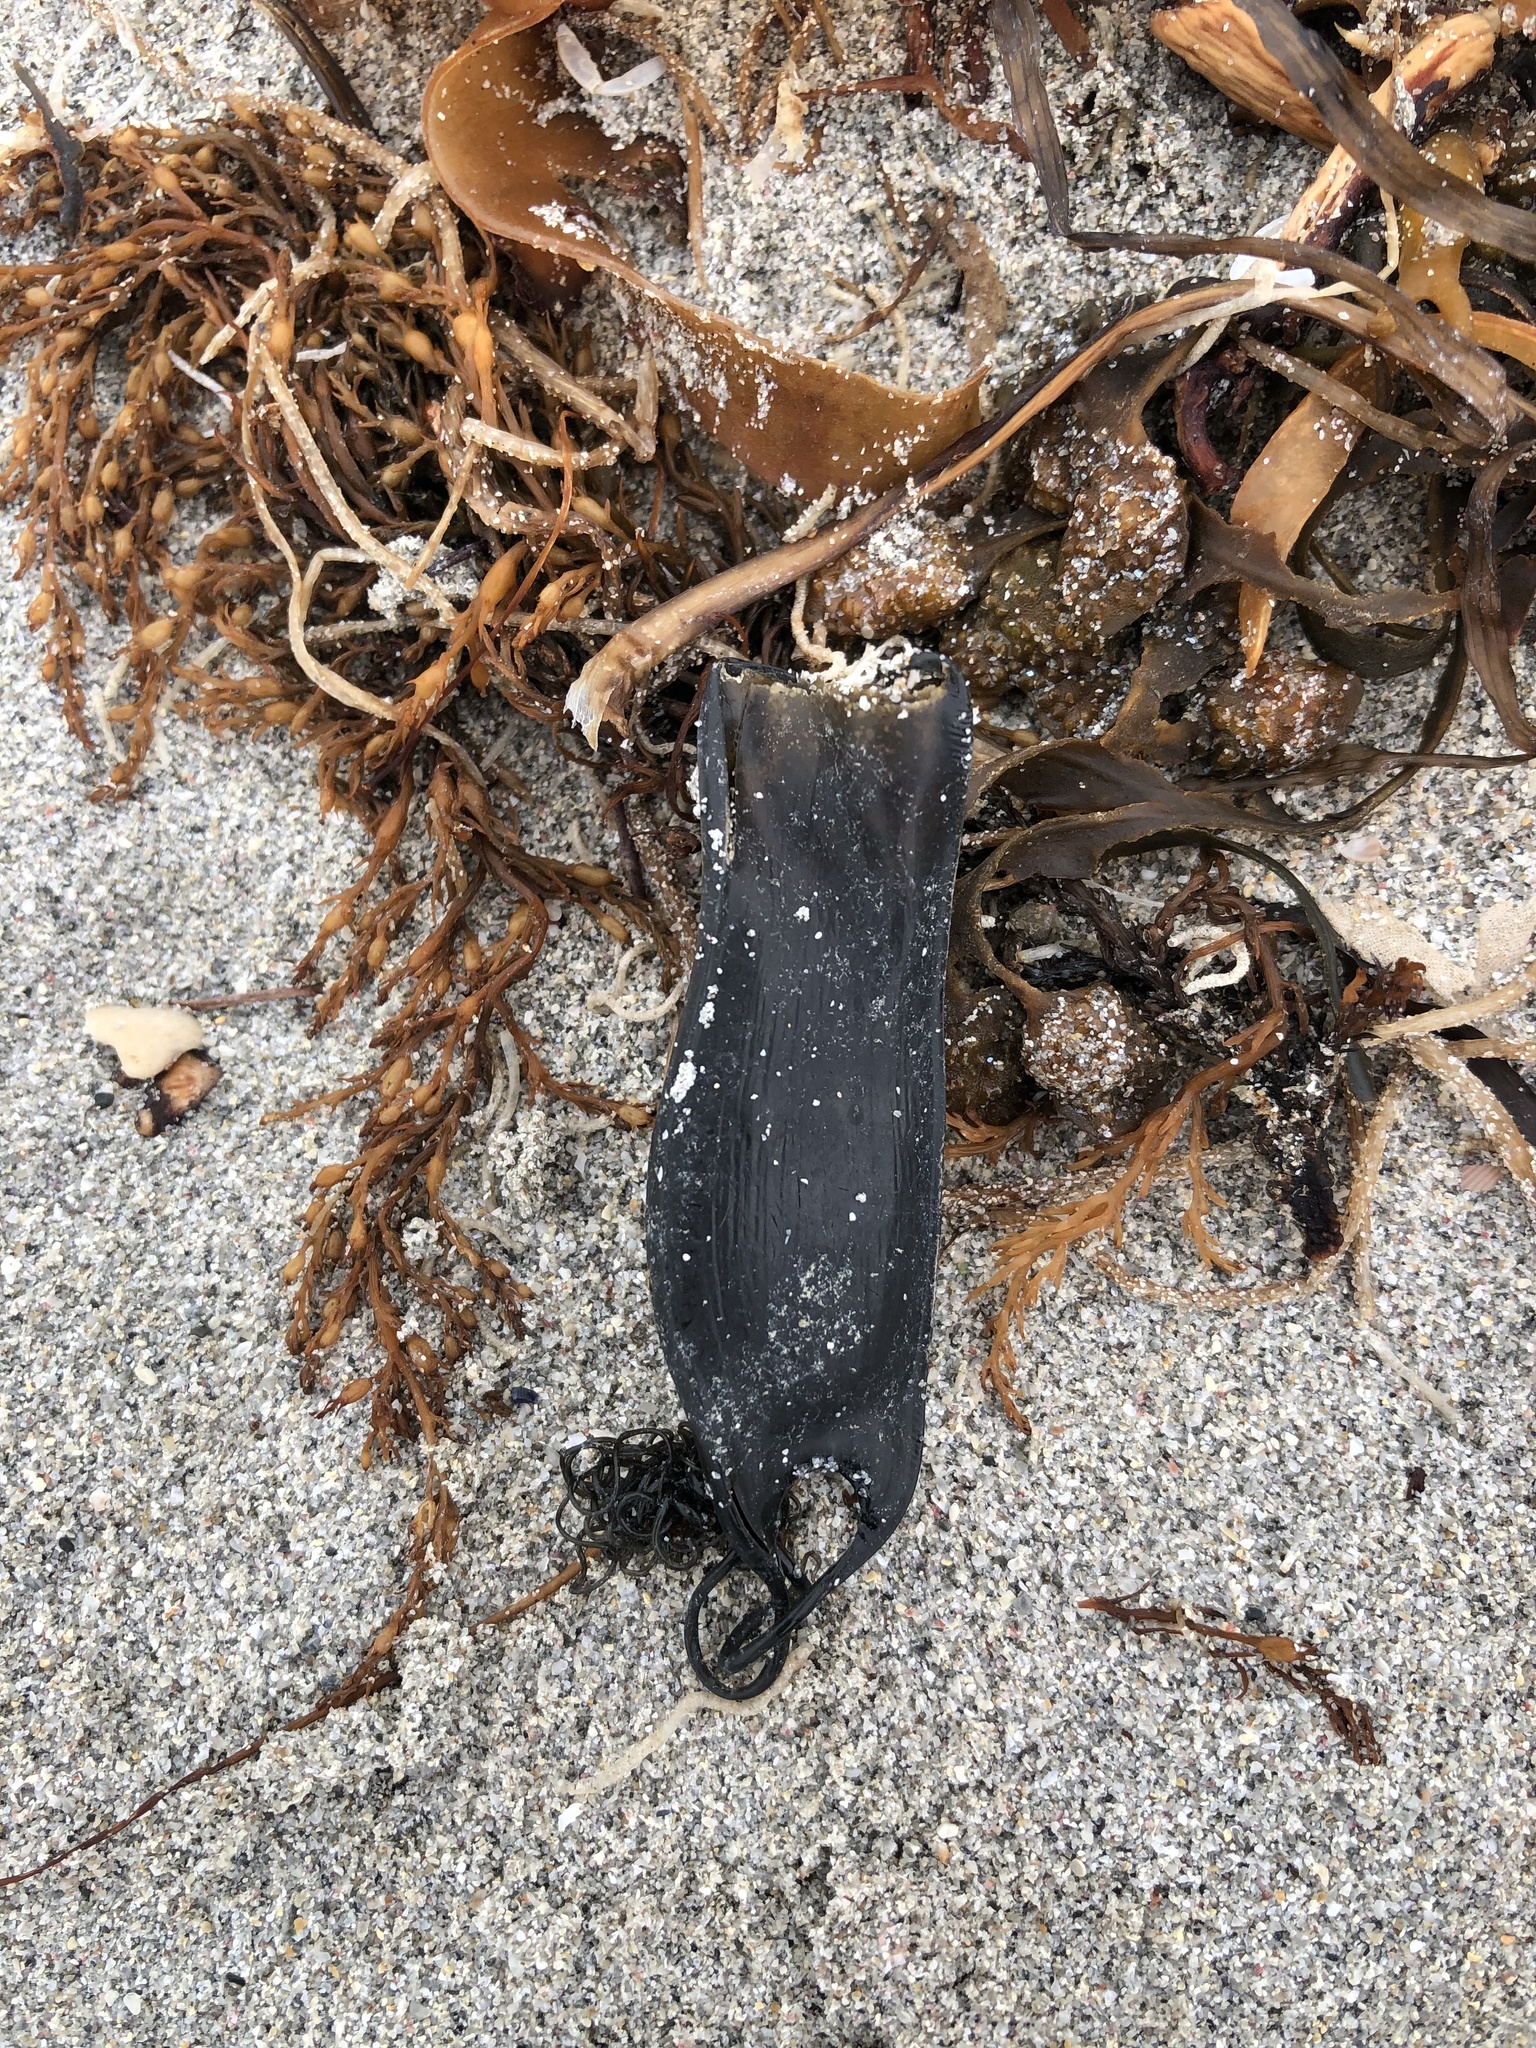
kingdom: Animalia
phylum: Chordata
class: Elasmobranchii
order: Carcharhiniformes
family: Scyliorhinidae
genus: Scyliorhinus
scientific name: Scyliorhinus canicula
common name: Lesser spotted dogfish
